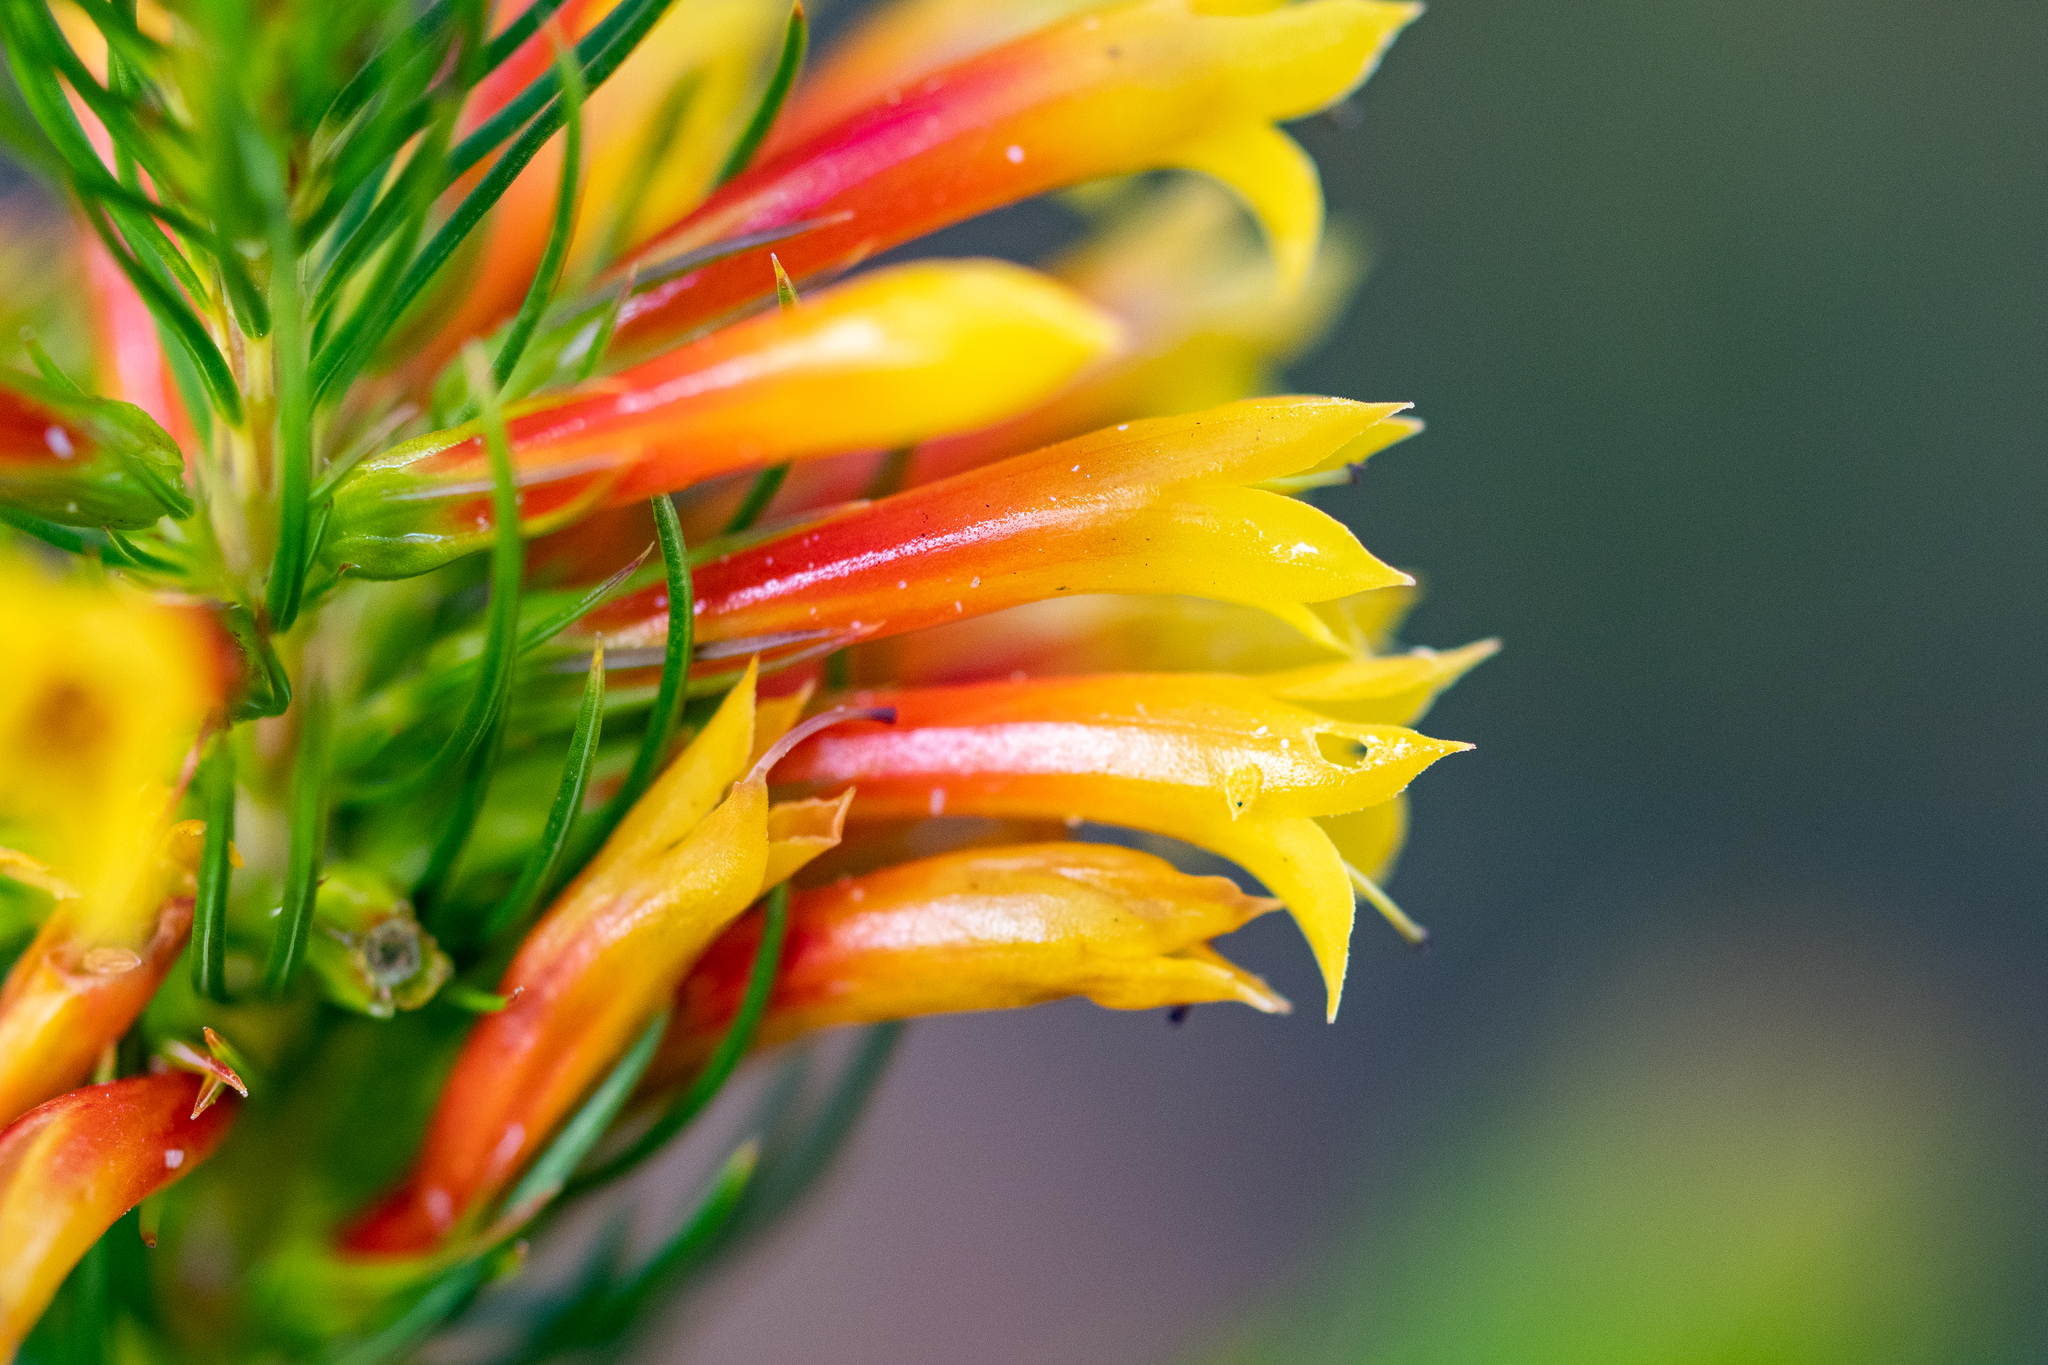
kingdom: Plantae
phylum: Tracheophyta
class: Magnoliopsida
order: Ericales
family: Ericaceae
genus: Erica
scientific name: Erica grandiflora
